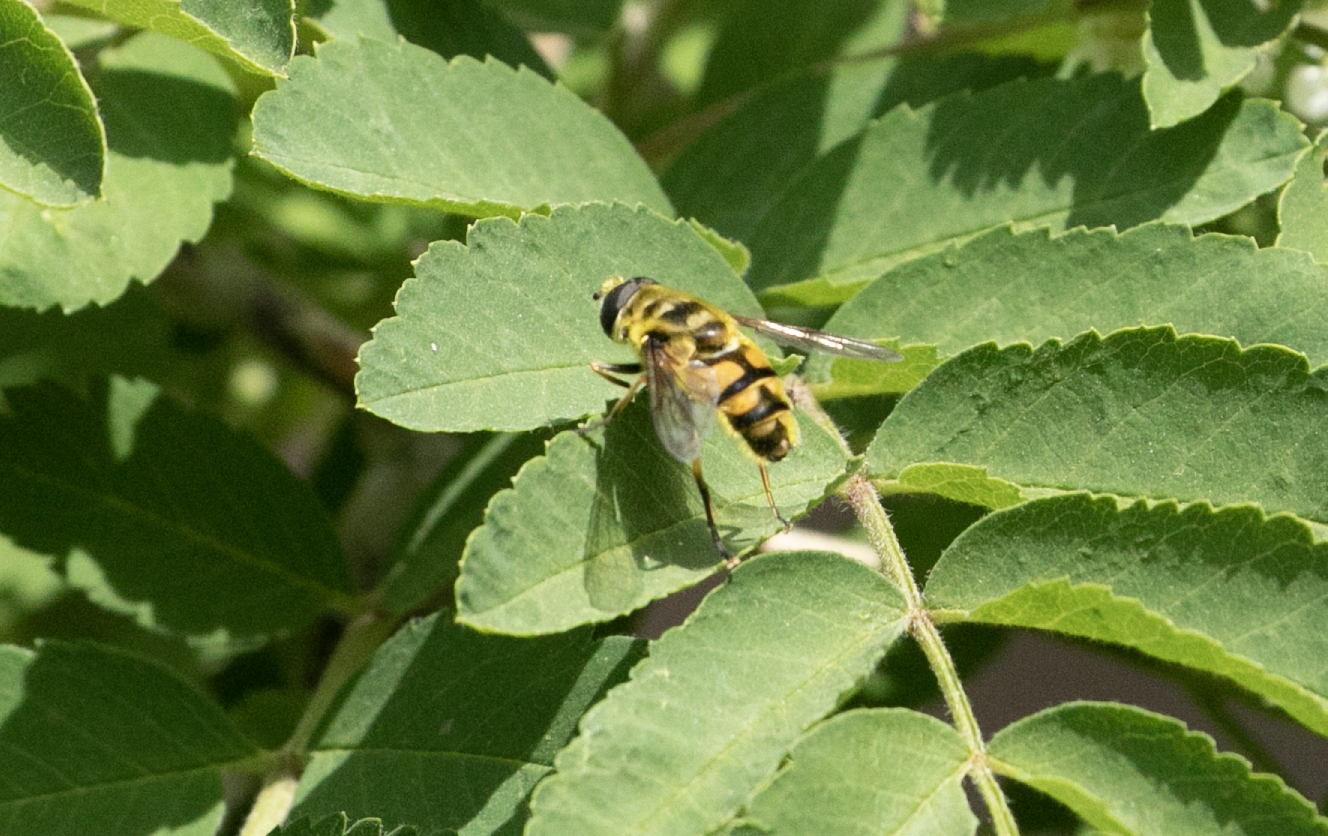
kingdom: Animalia
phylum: Arthropoda
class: Insecta
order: Diptera
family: Syrphidae
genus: Myathropa
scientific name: Myathropa florea
